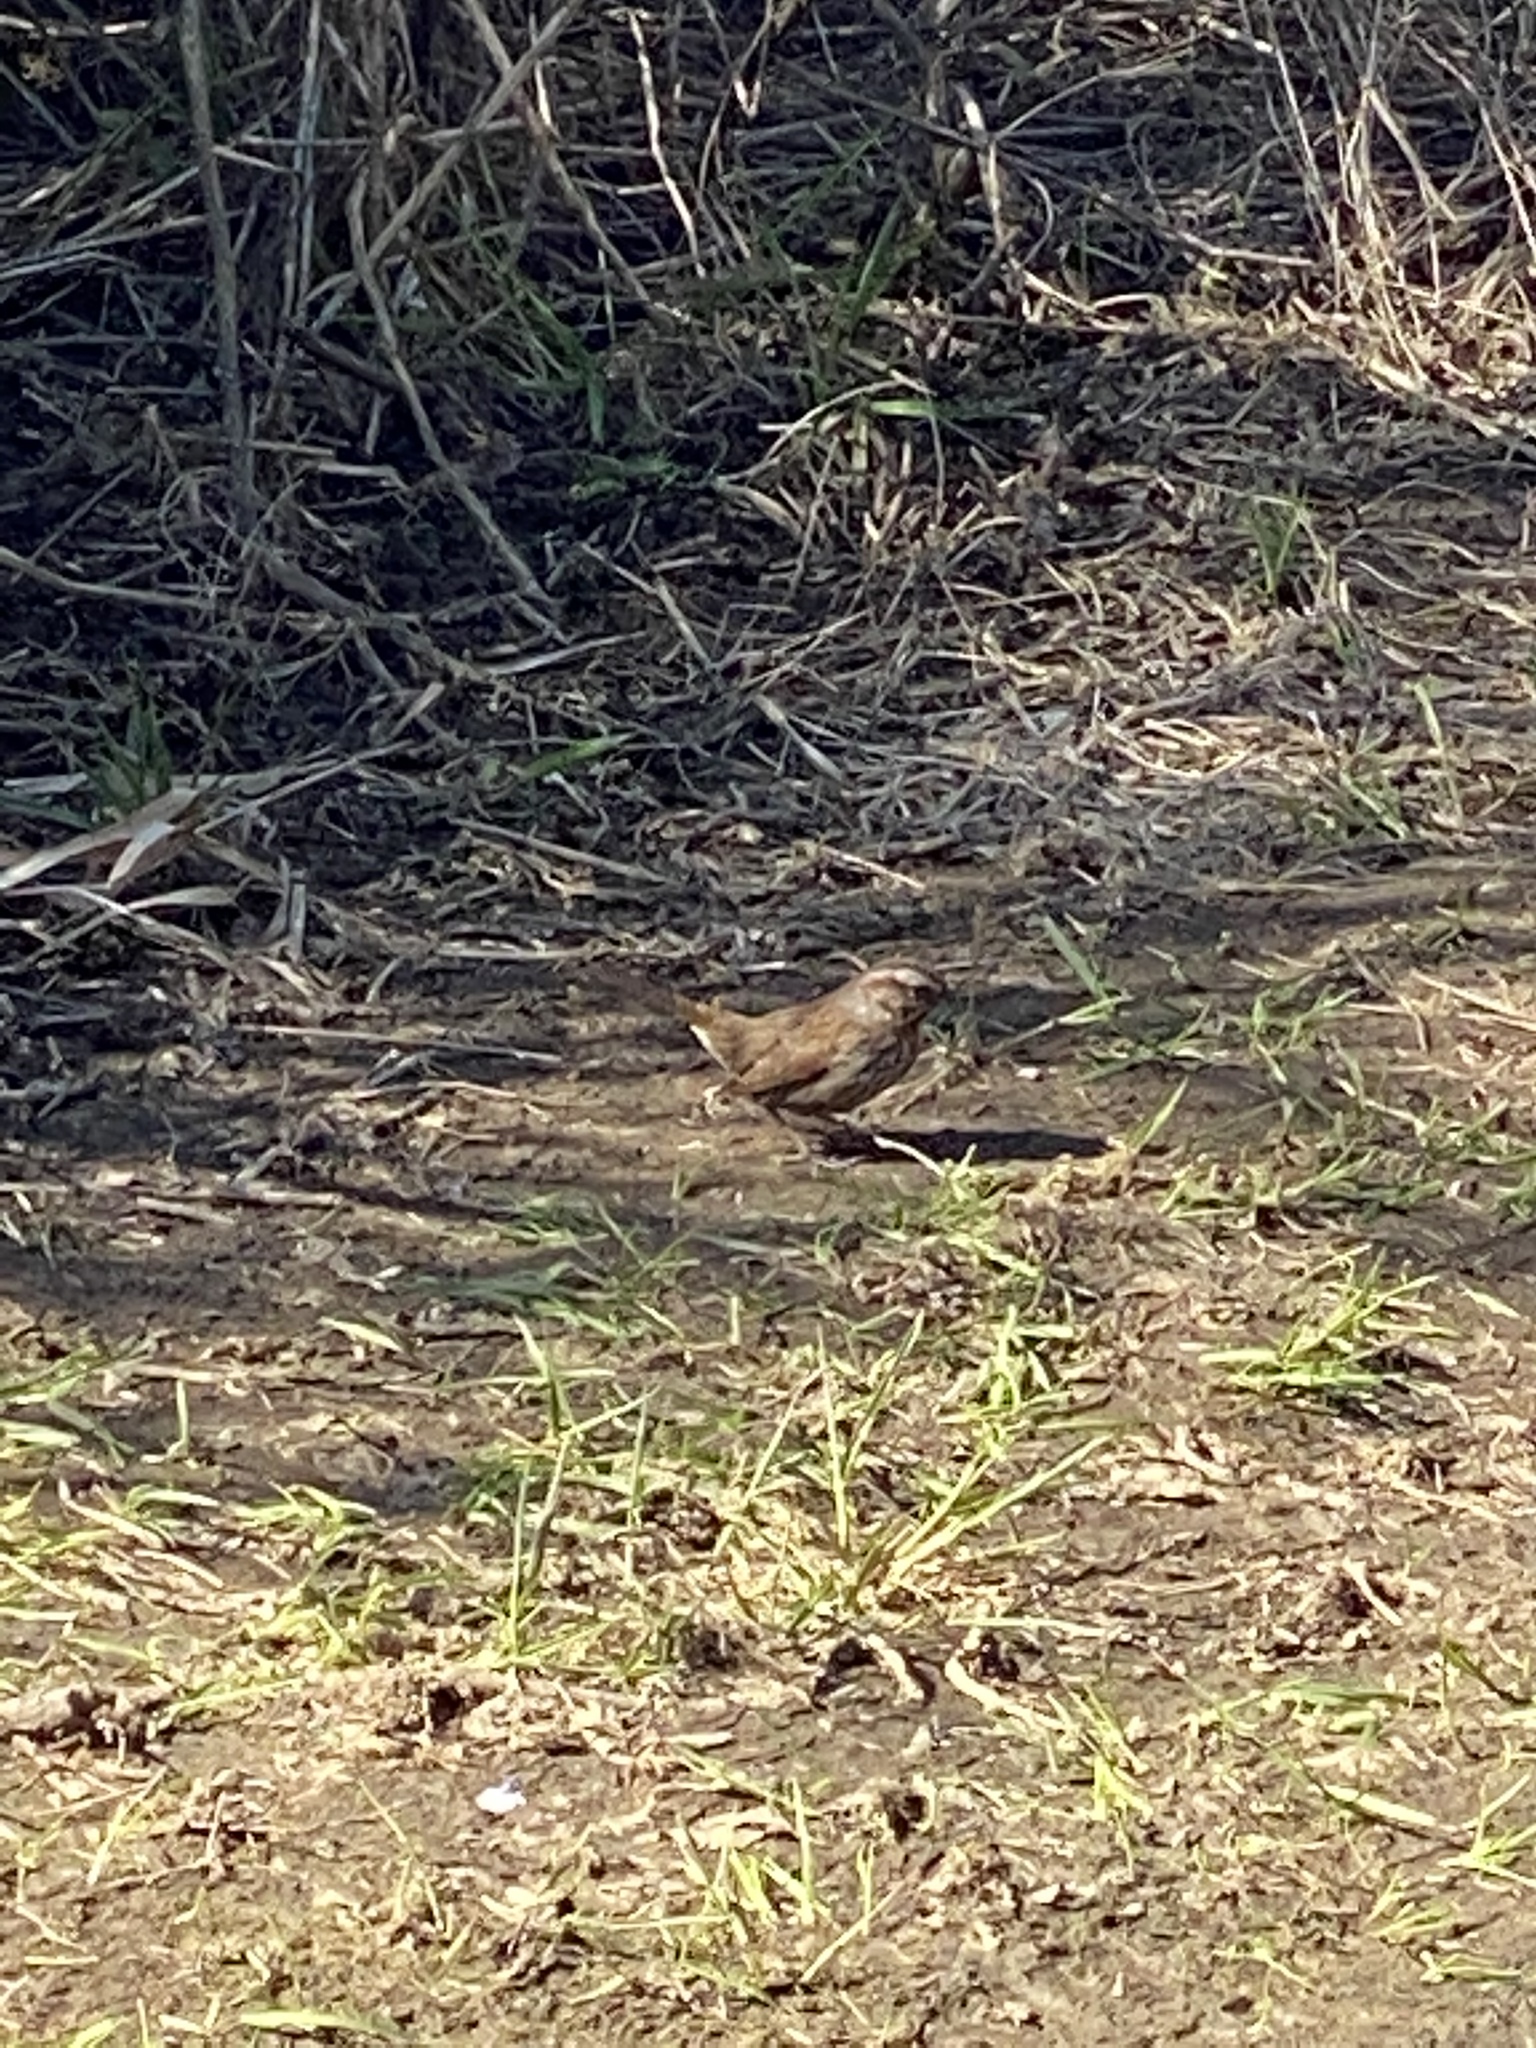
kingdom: Animalia
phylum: Chordata
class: Aves
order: Passeriformes
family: Passerellidae
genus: Melospiza
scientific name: Melospiza melodia
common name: Song sparrow
